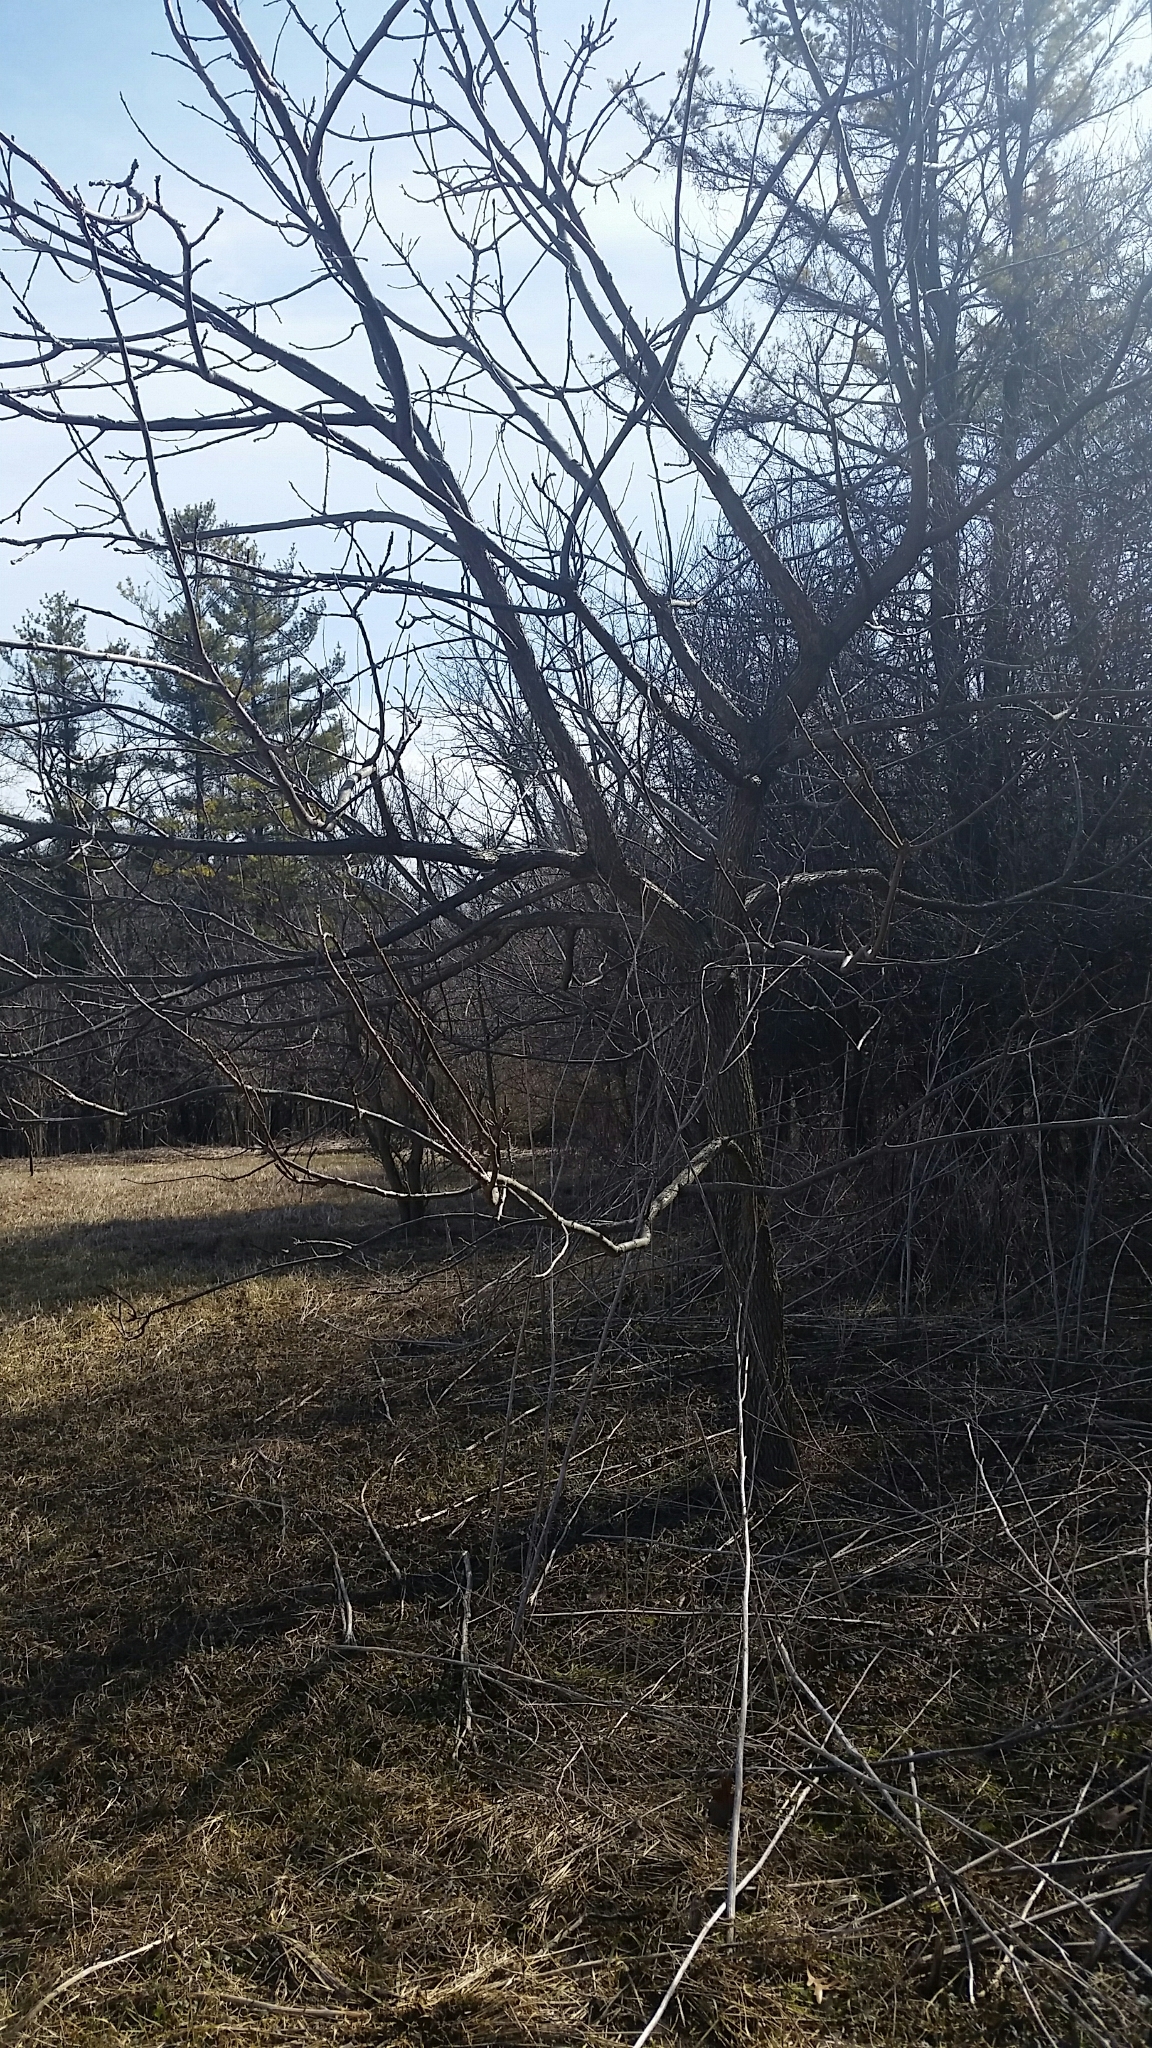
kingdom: Plantae
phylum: Tracheophyta
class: Magnoliopsida
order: Fagales
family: Juglandaceae
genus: Juglans
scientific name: Juglans nigra
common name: Black walnut
